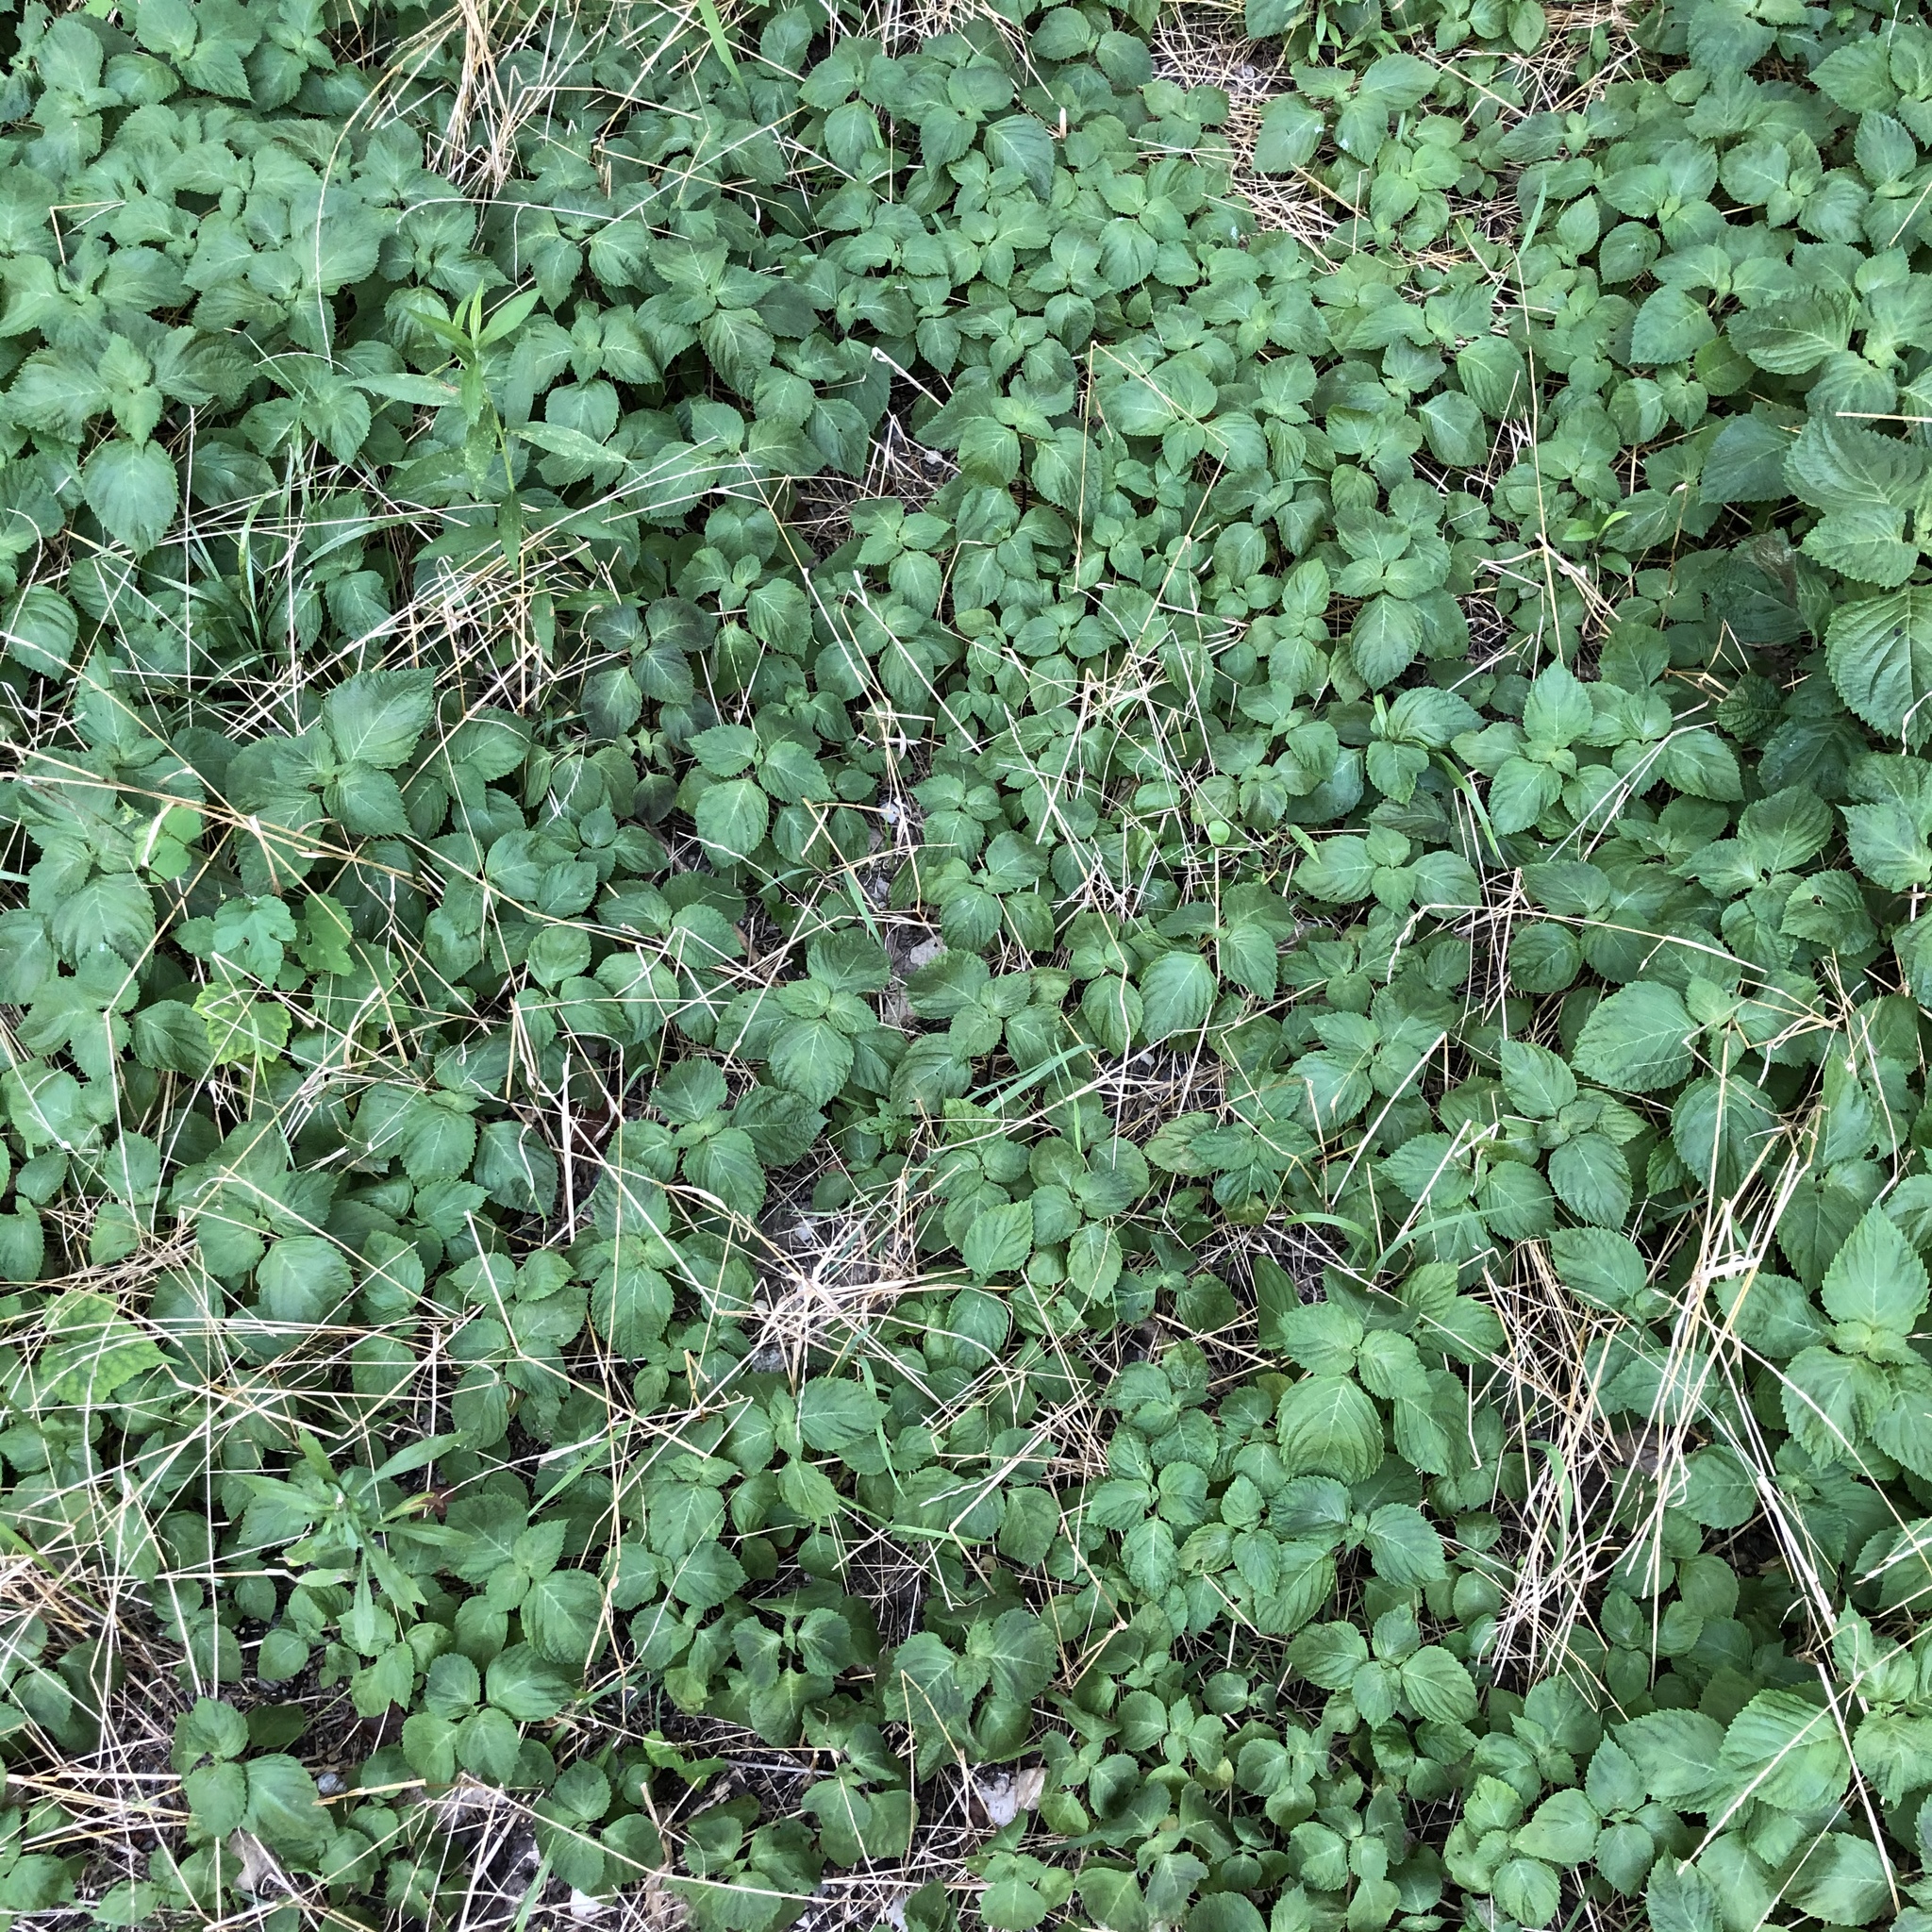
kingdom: Plantae
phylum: Tracheophyta
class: Magnoliopsida
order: Lamiales
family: Lamiaceae
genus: Perilla
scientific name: Perilla frutescens
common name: Perilla
